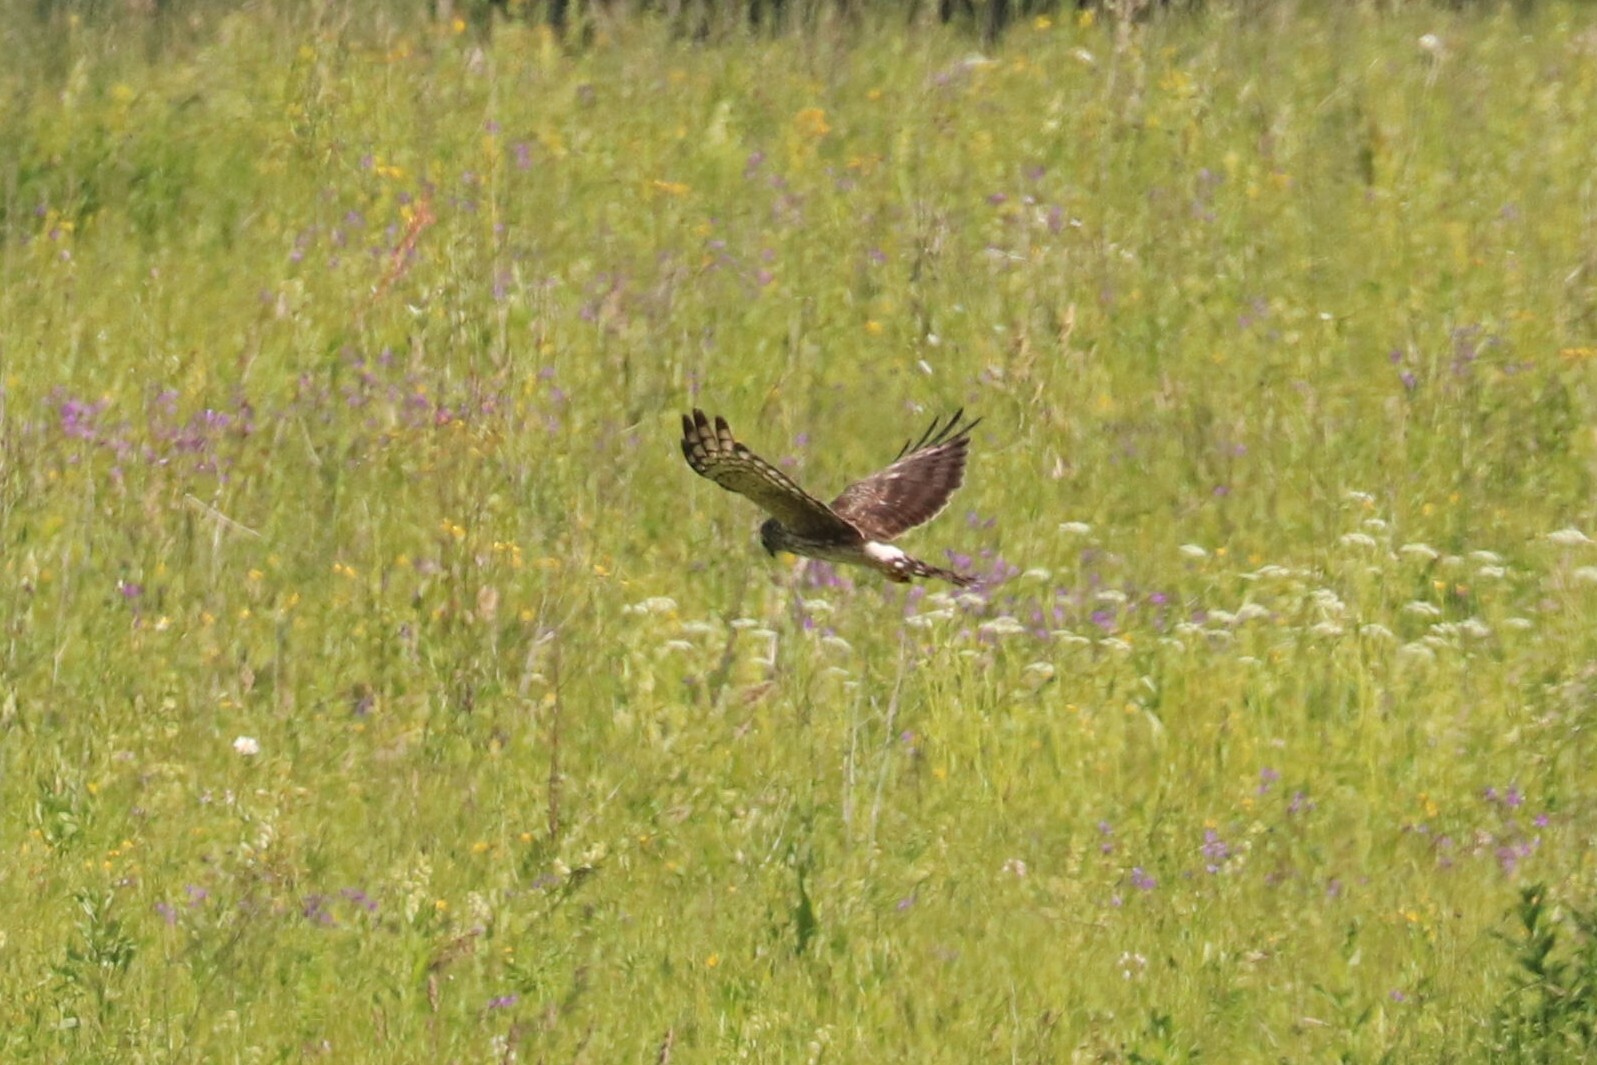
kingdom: Animalia
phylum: Chordata
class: Aves
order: Accipitriformes
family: Accipitridae
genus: Circus
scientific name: Circus cyaneus
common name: Hen harrier
